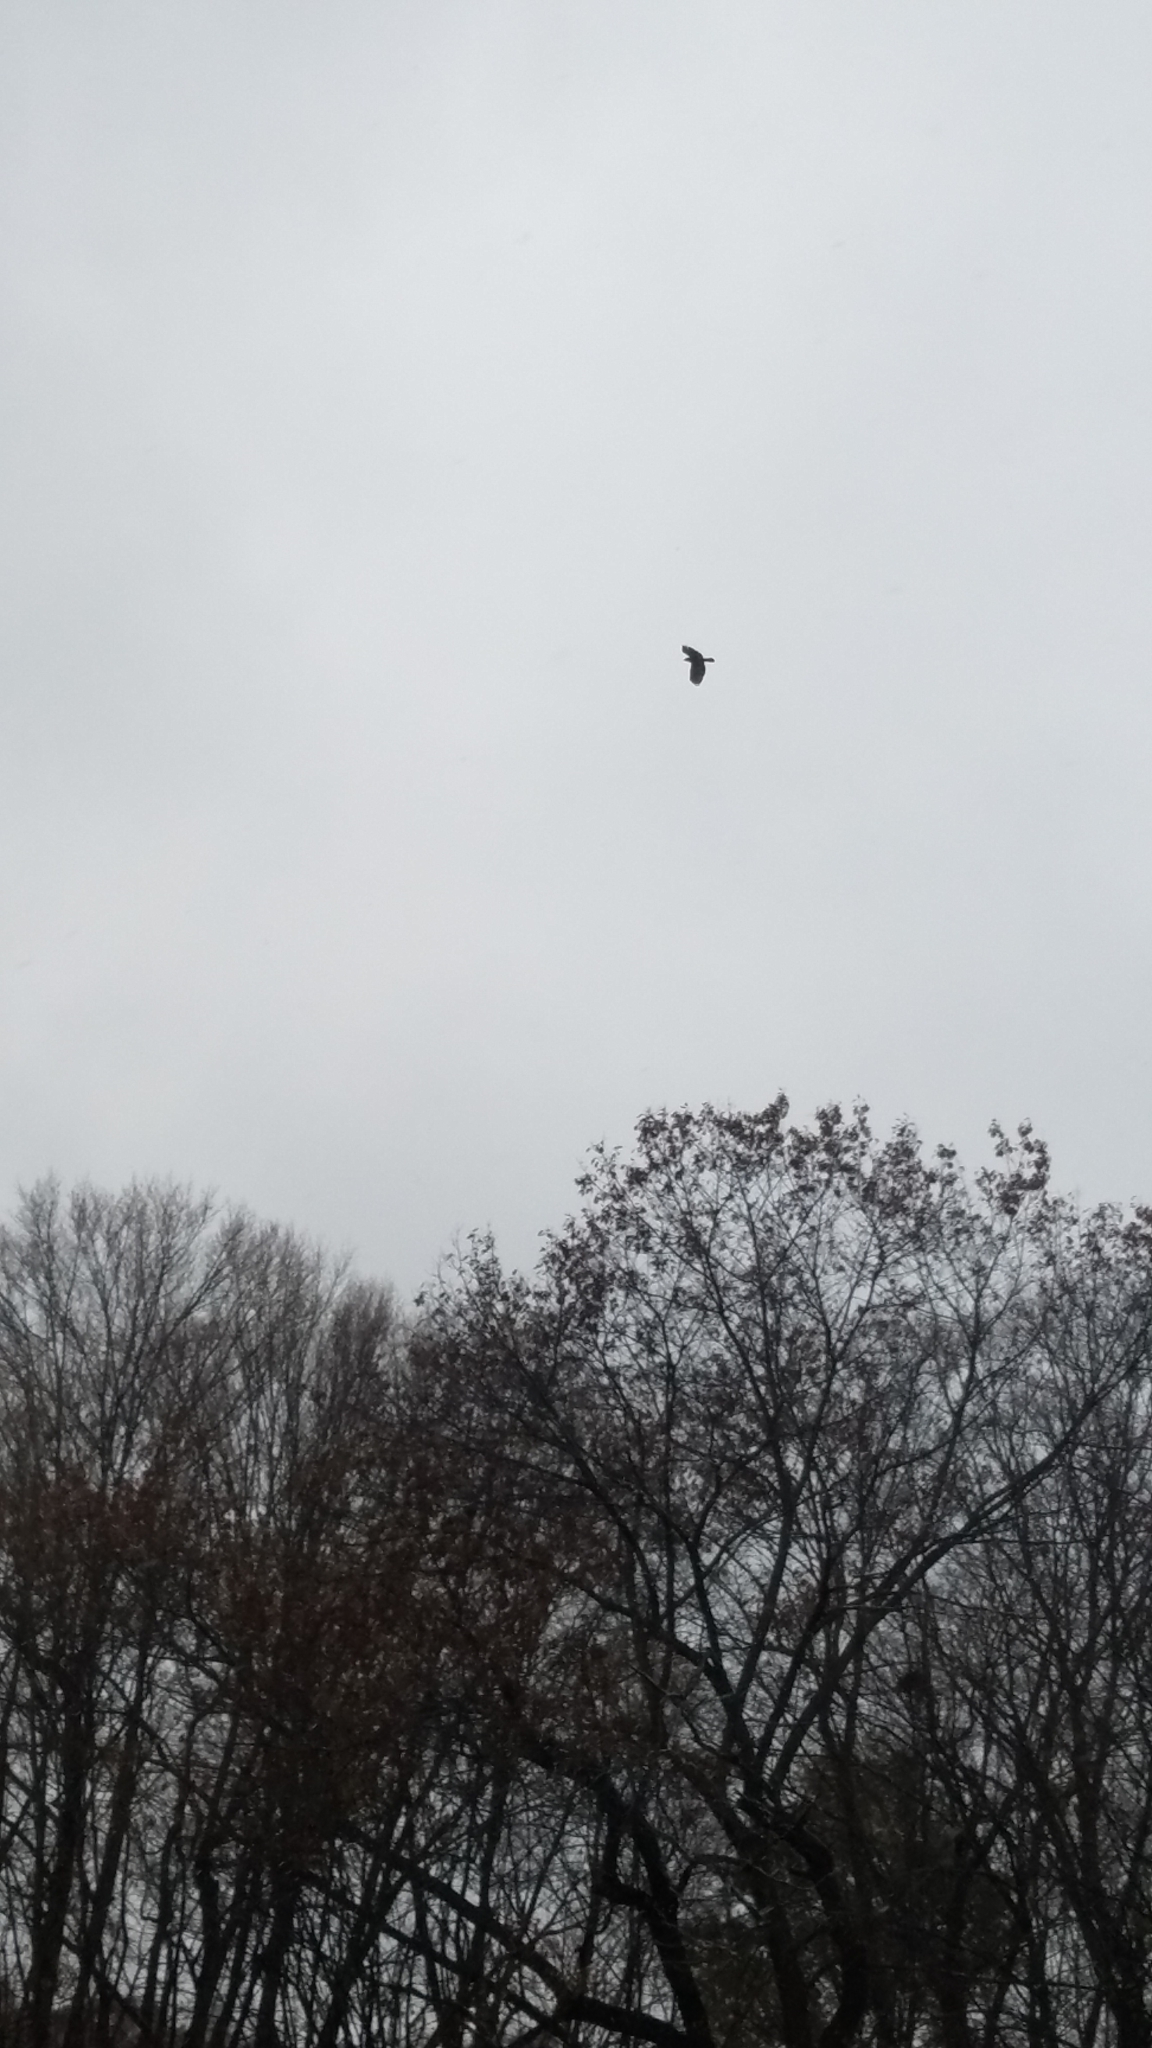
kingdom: Animalia
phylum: Chordata
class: Aves
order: Accipitriformes
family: Accipitridae
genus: Buteo
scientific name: Buteo jamaicensis
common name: Red-tailed hawk
